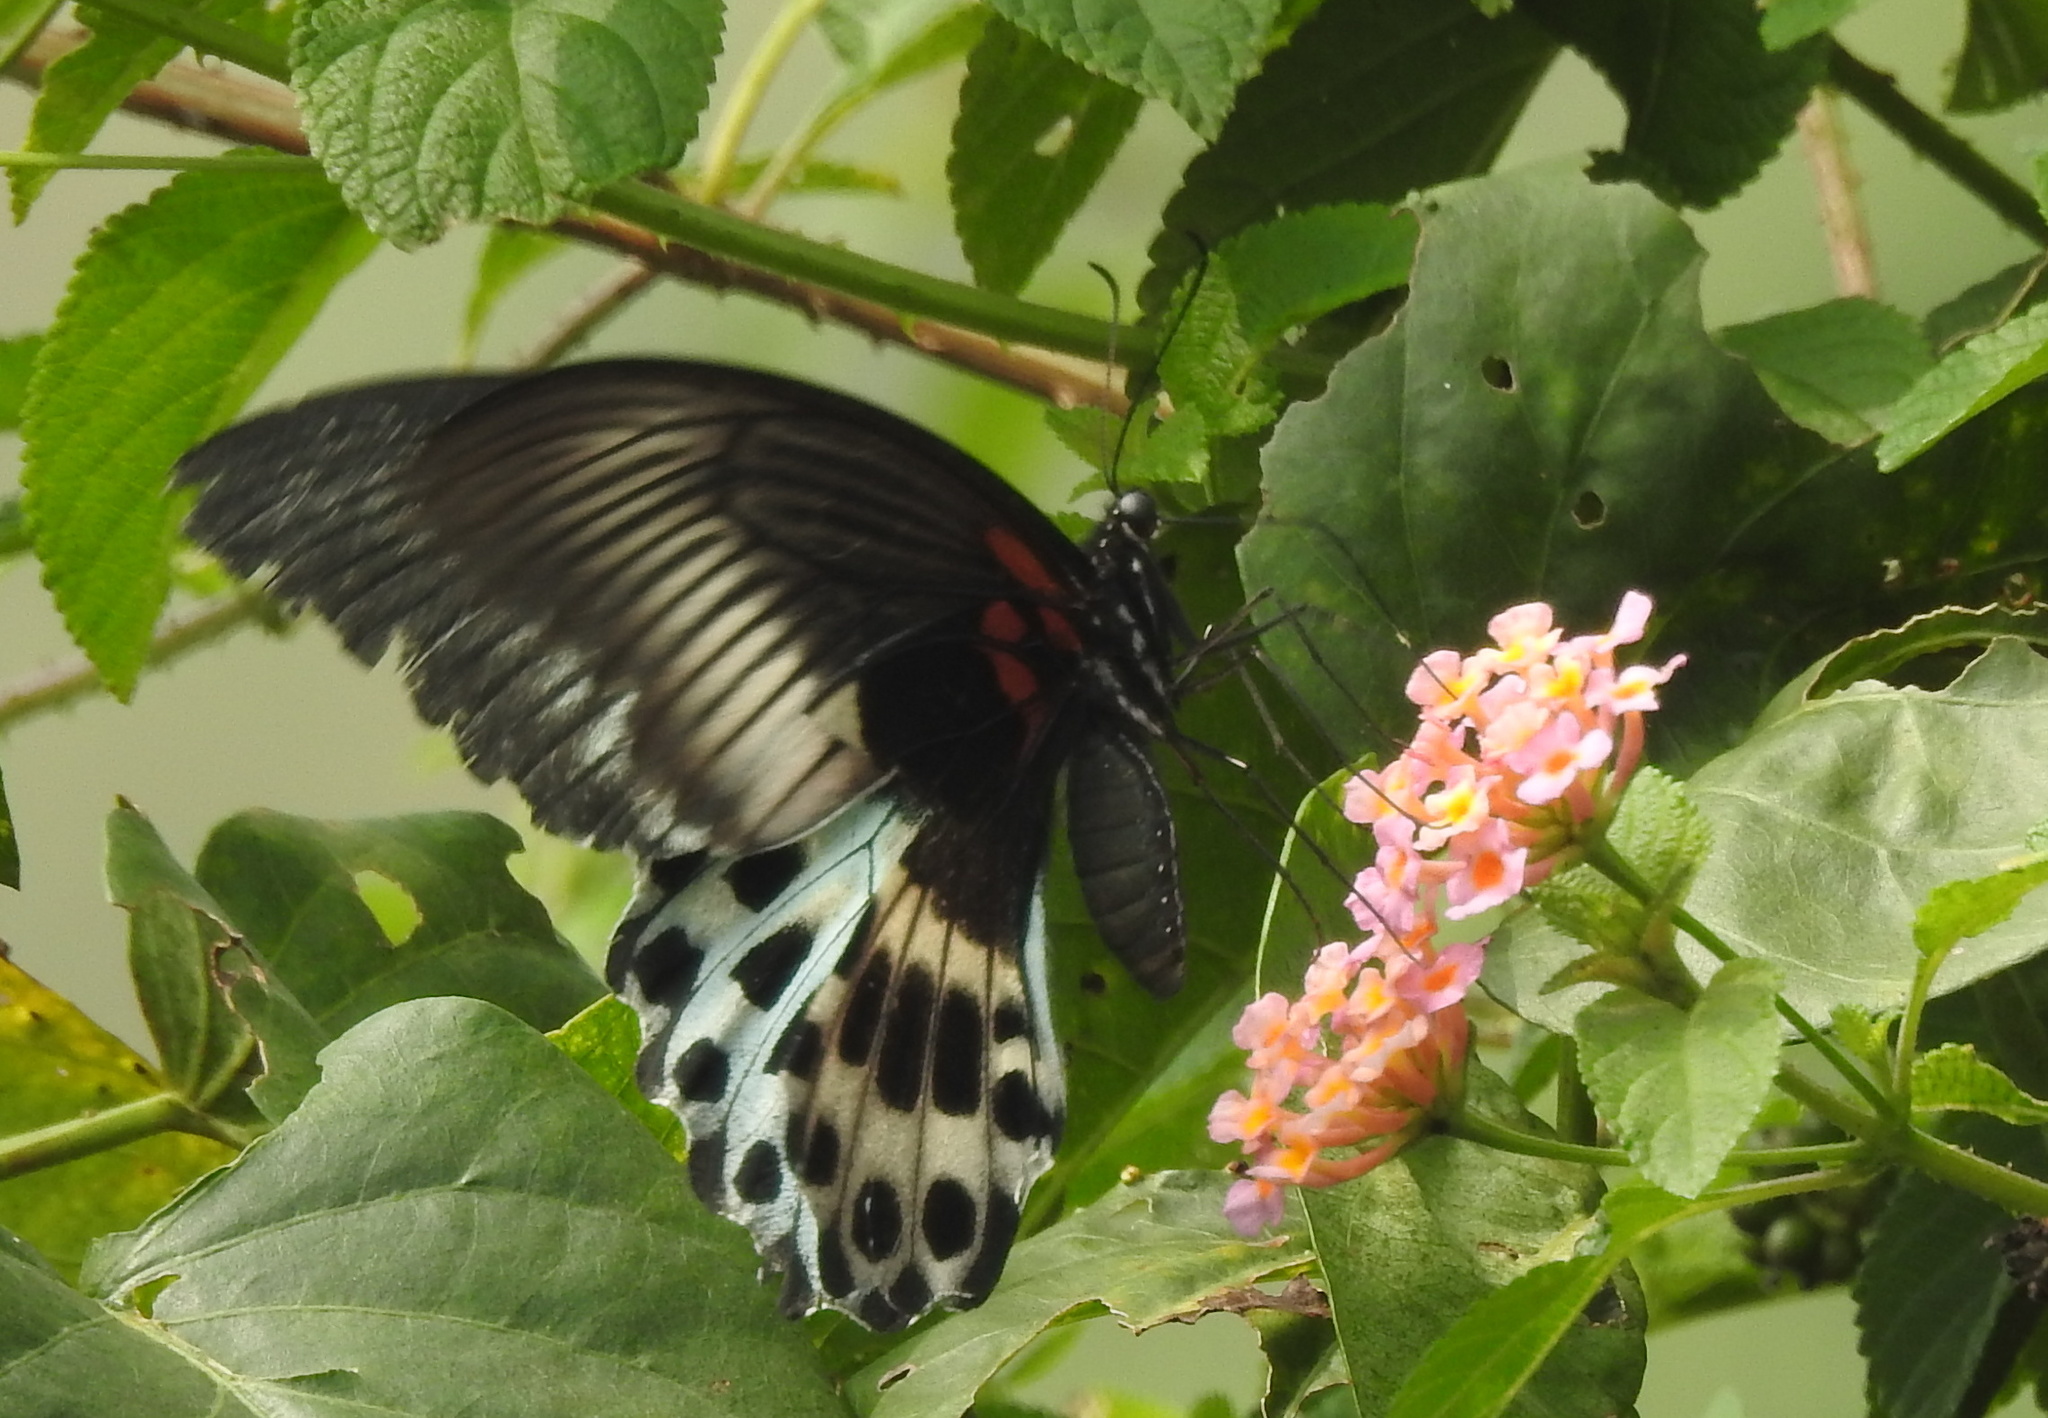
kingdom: Animalia
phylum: Arthropoda
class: Insecta
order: Lepidoptera
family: Papilionidae
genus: Papilio
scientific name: Papilio memnon
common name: Great mormon
